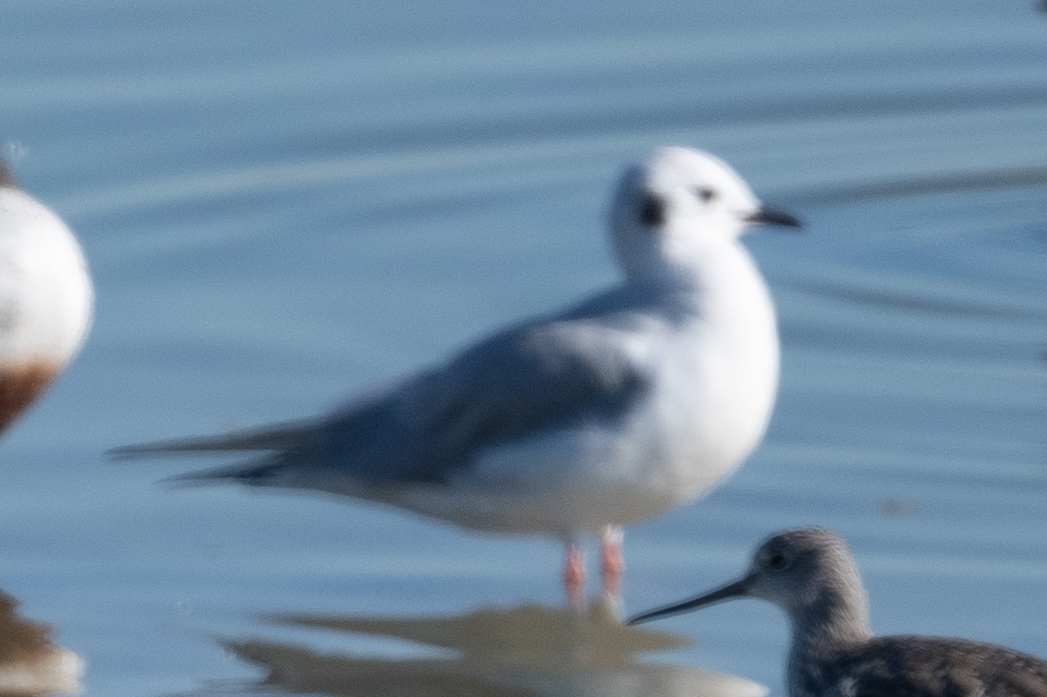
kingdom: Animalia
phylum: Chordata
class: Aves
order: Charadriiformes
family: Laridae
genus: Chroicocephalus
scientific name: Chroicocephalus philadelphia
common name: Bonaparte's gull
